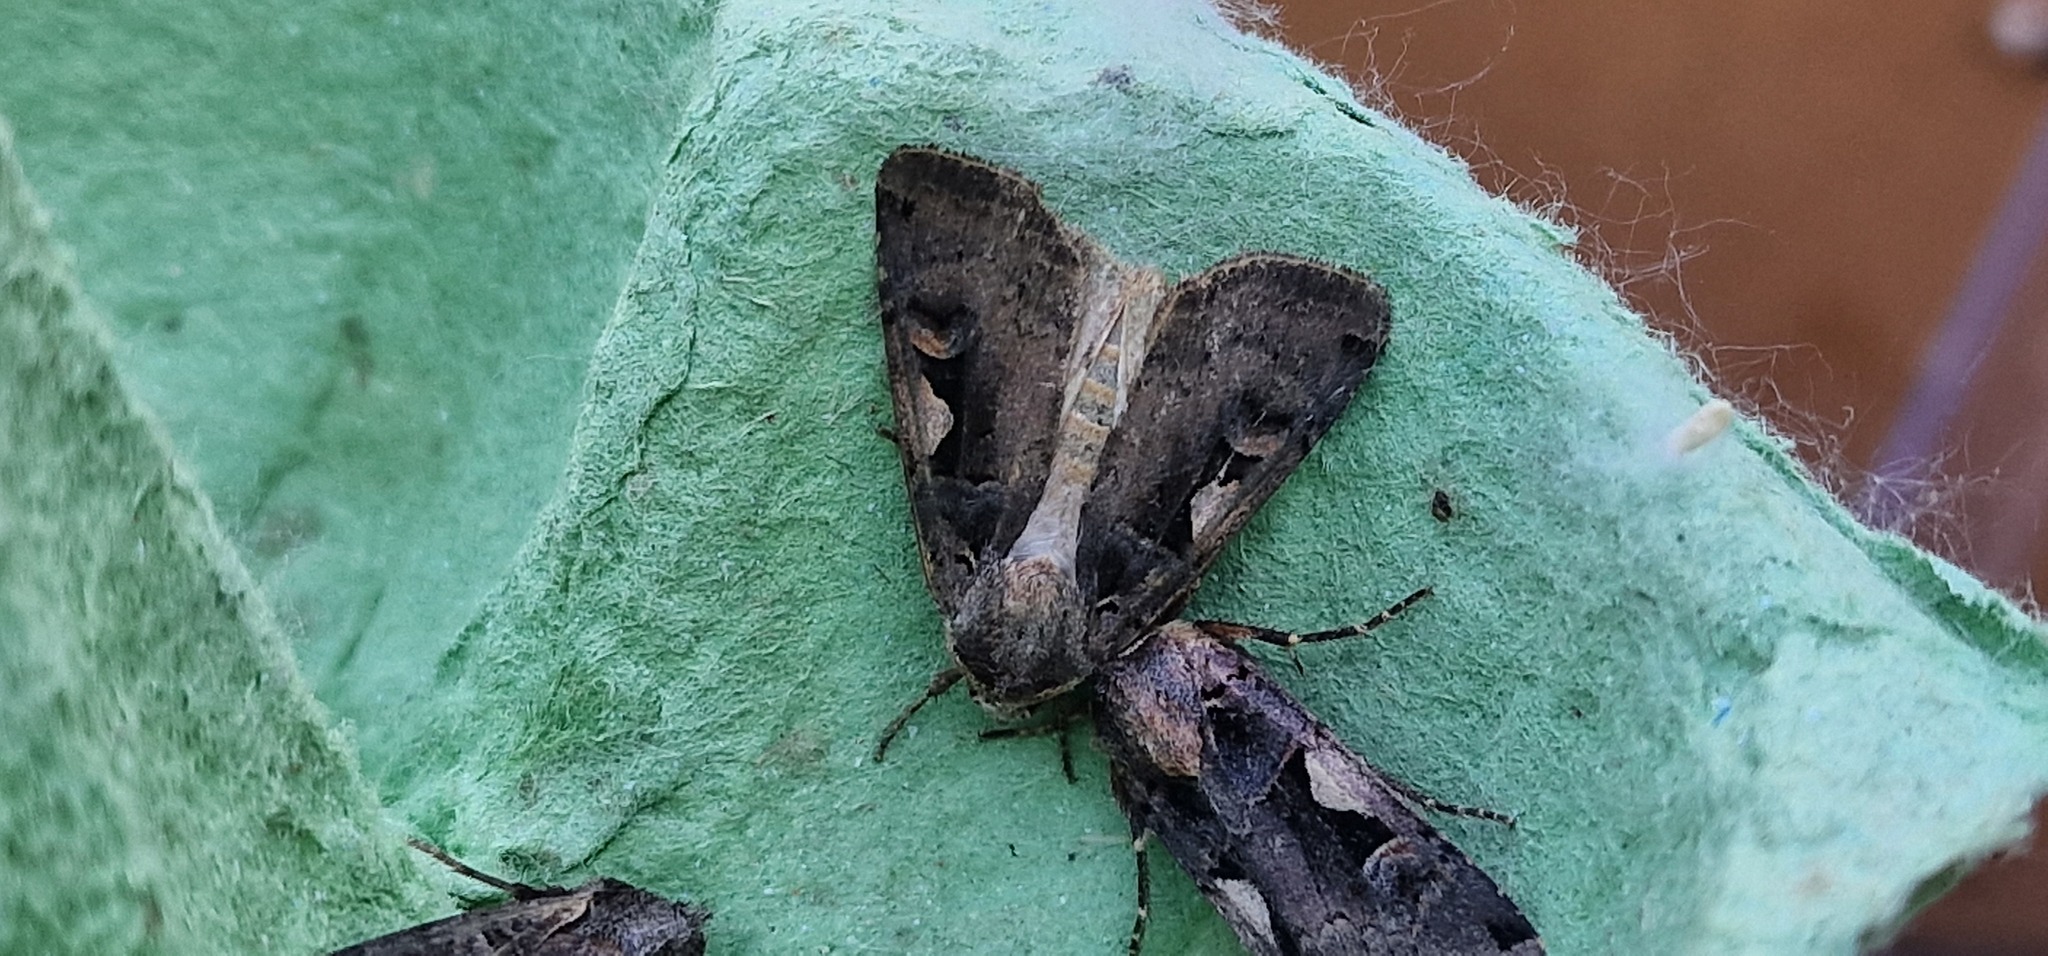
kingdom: Animalia
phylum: Arthropoda
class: Insecta
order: Lepidoptera
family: Noctuidae
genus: Xestia
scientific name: Xestia c-nigrum
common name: Setaceous hebrew character
